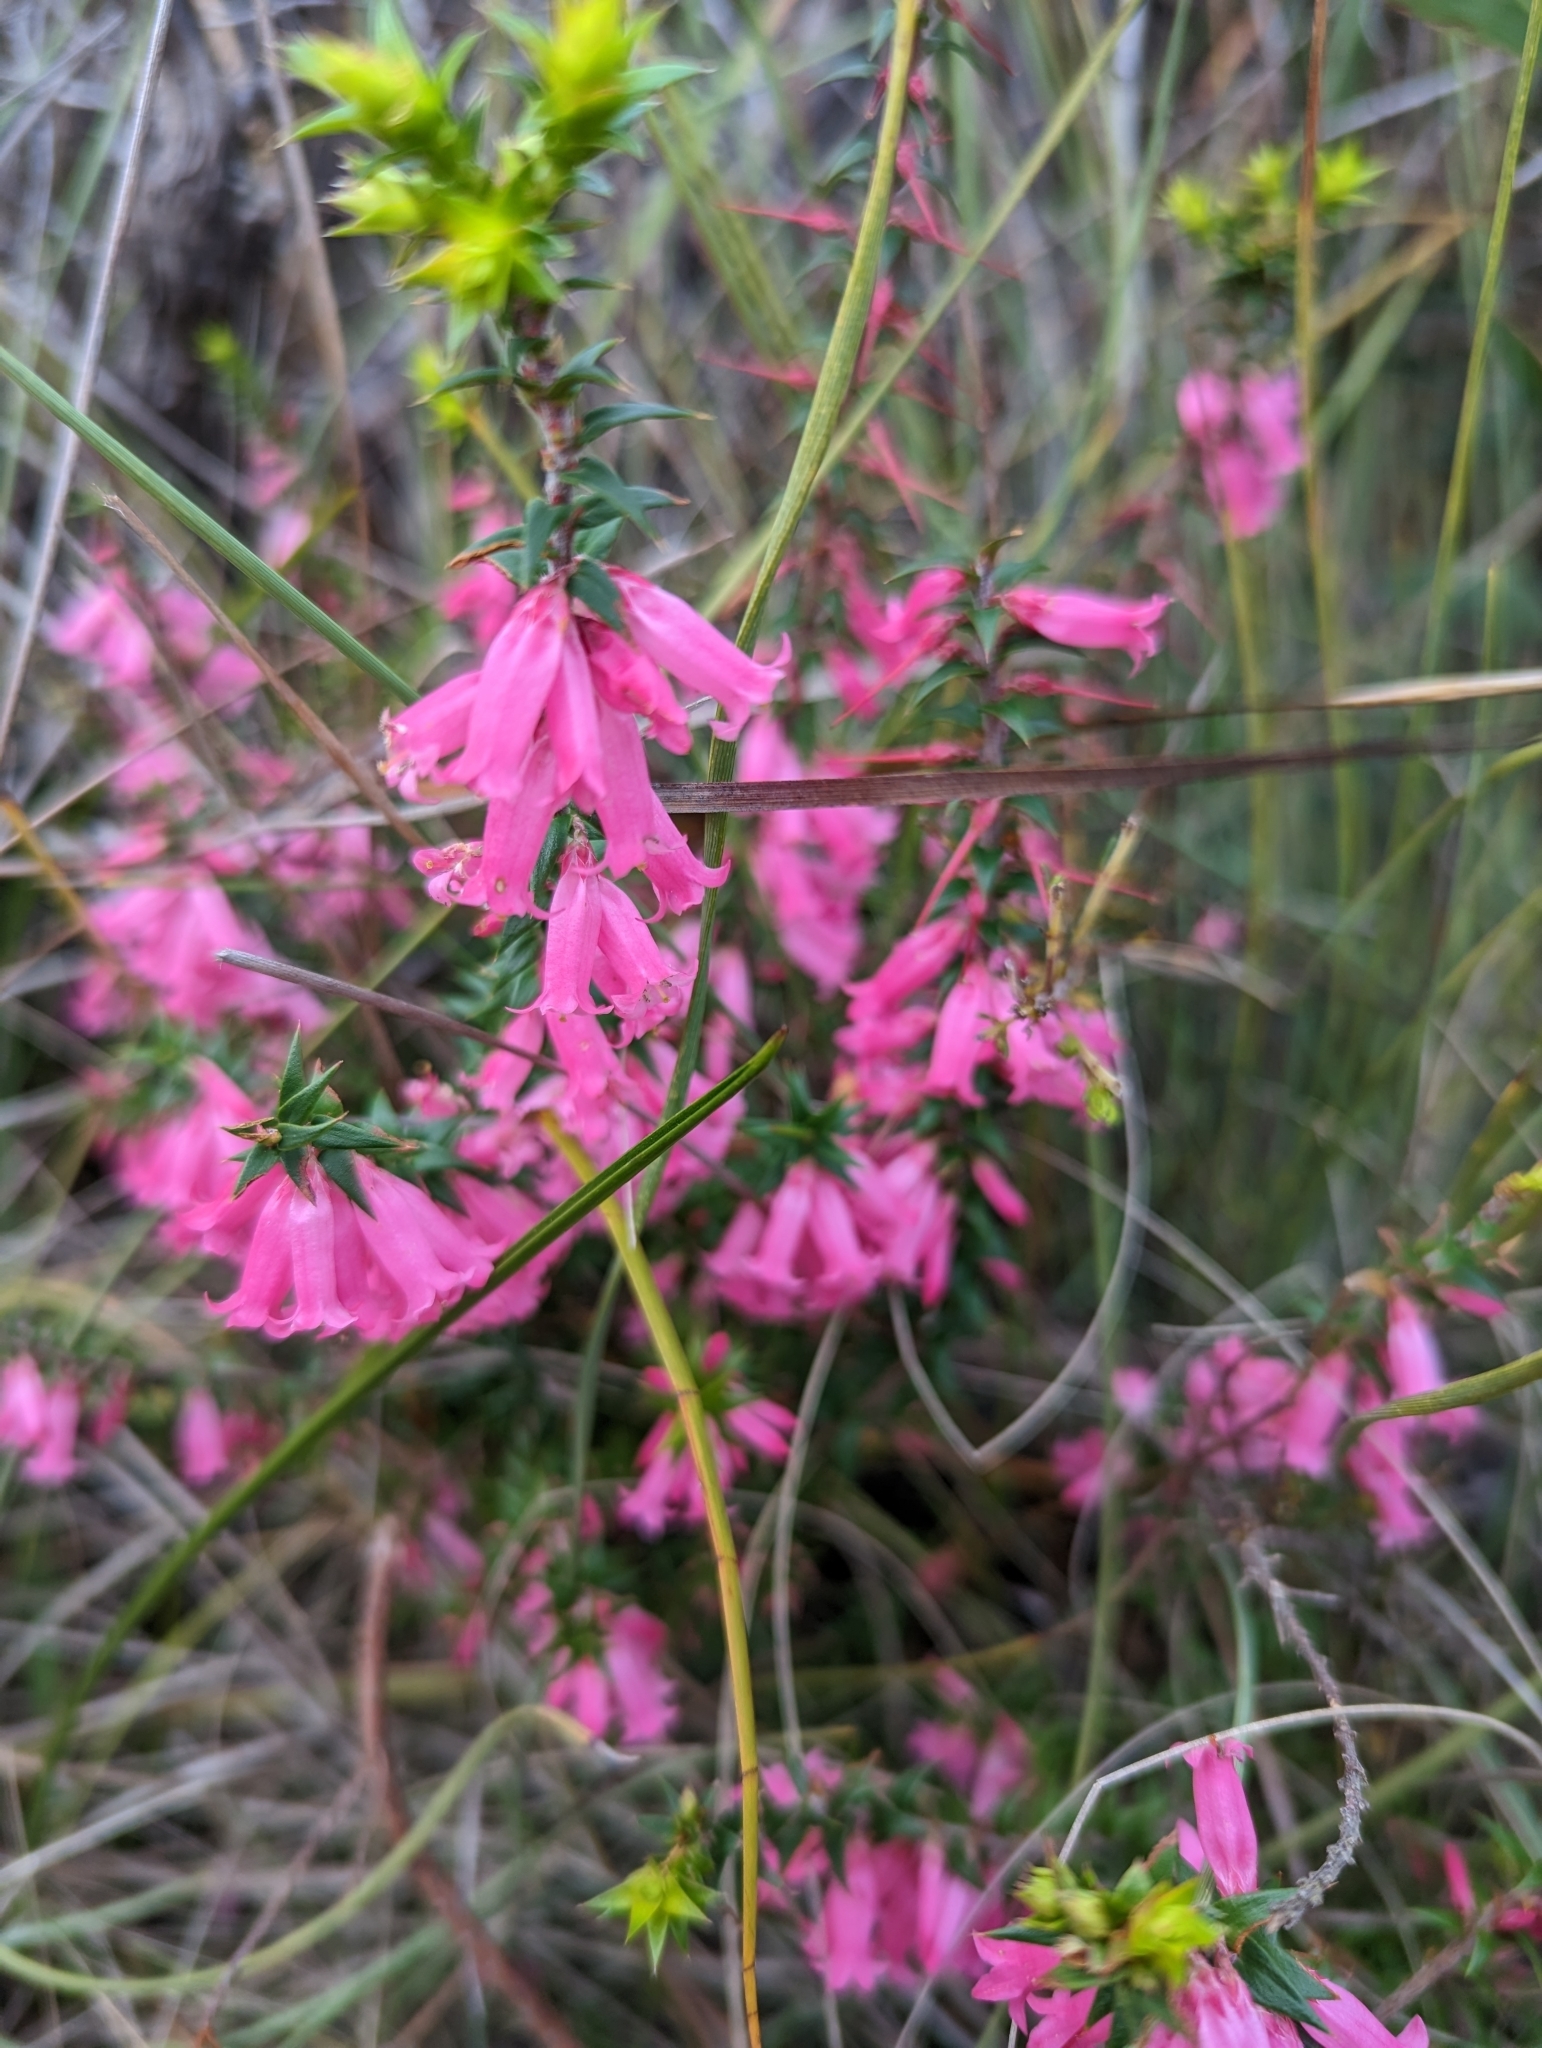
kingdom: Plantae
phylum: Tracheophyta
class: Magnoliopsida
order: Ericales
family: Ericaceae
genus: Epacris
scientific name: Epacris impressa
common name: Common-heath
